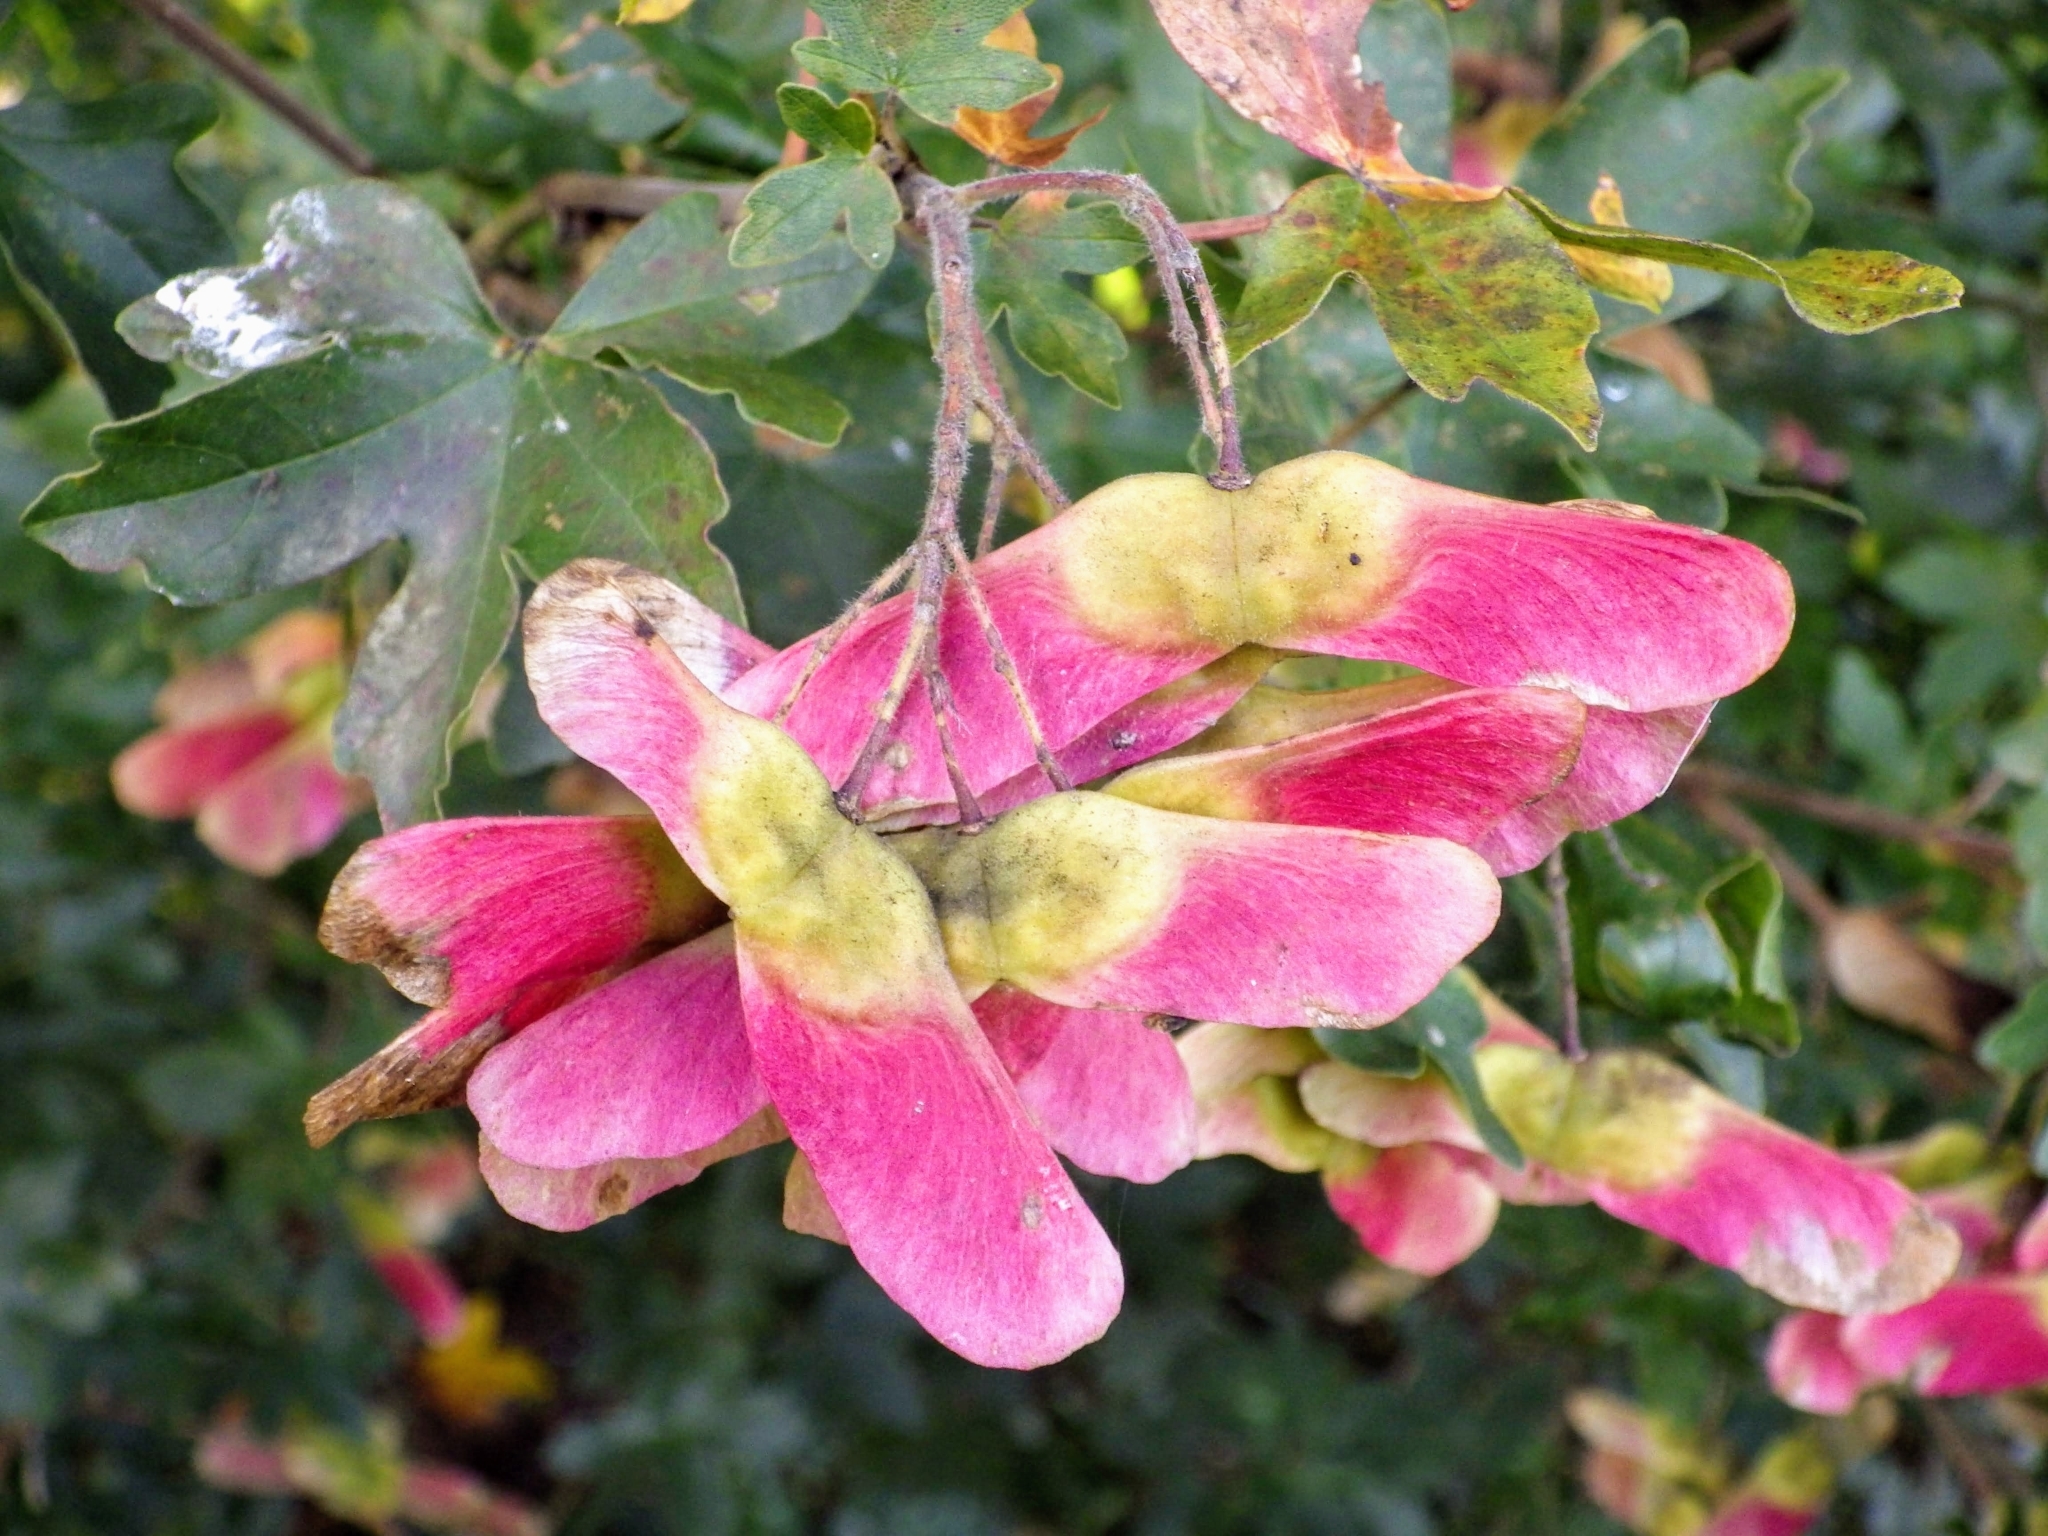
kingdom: Plantae
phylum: Tracheophyta
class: Magnoliopsida
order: Sapindales
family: Sapindaceae
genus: Acer
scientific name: Acer campestre
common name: Field maple
